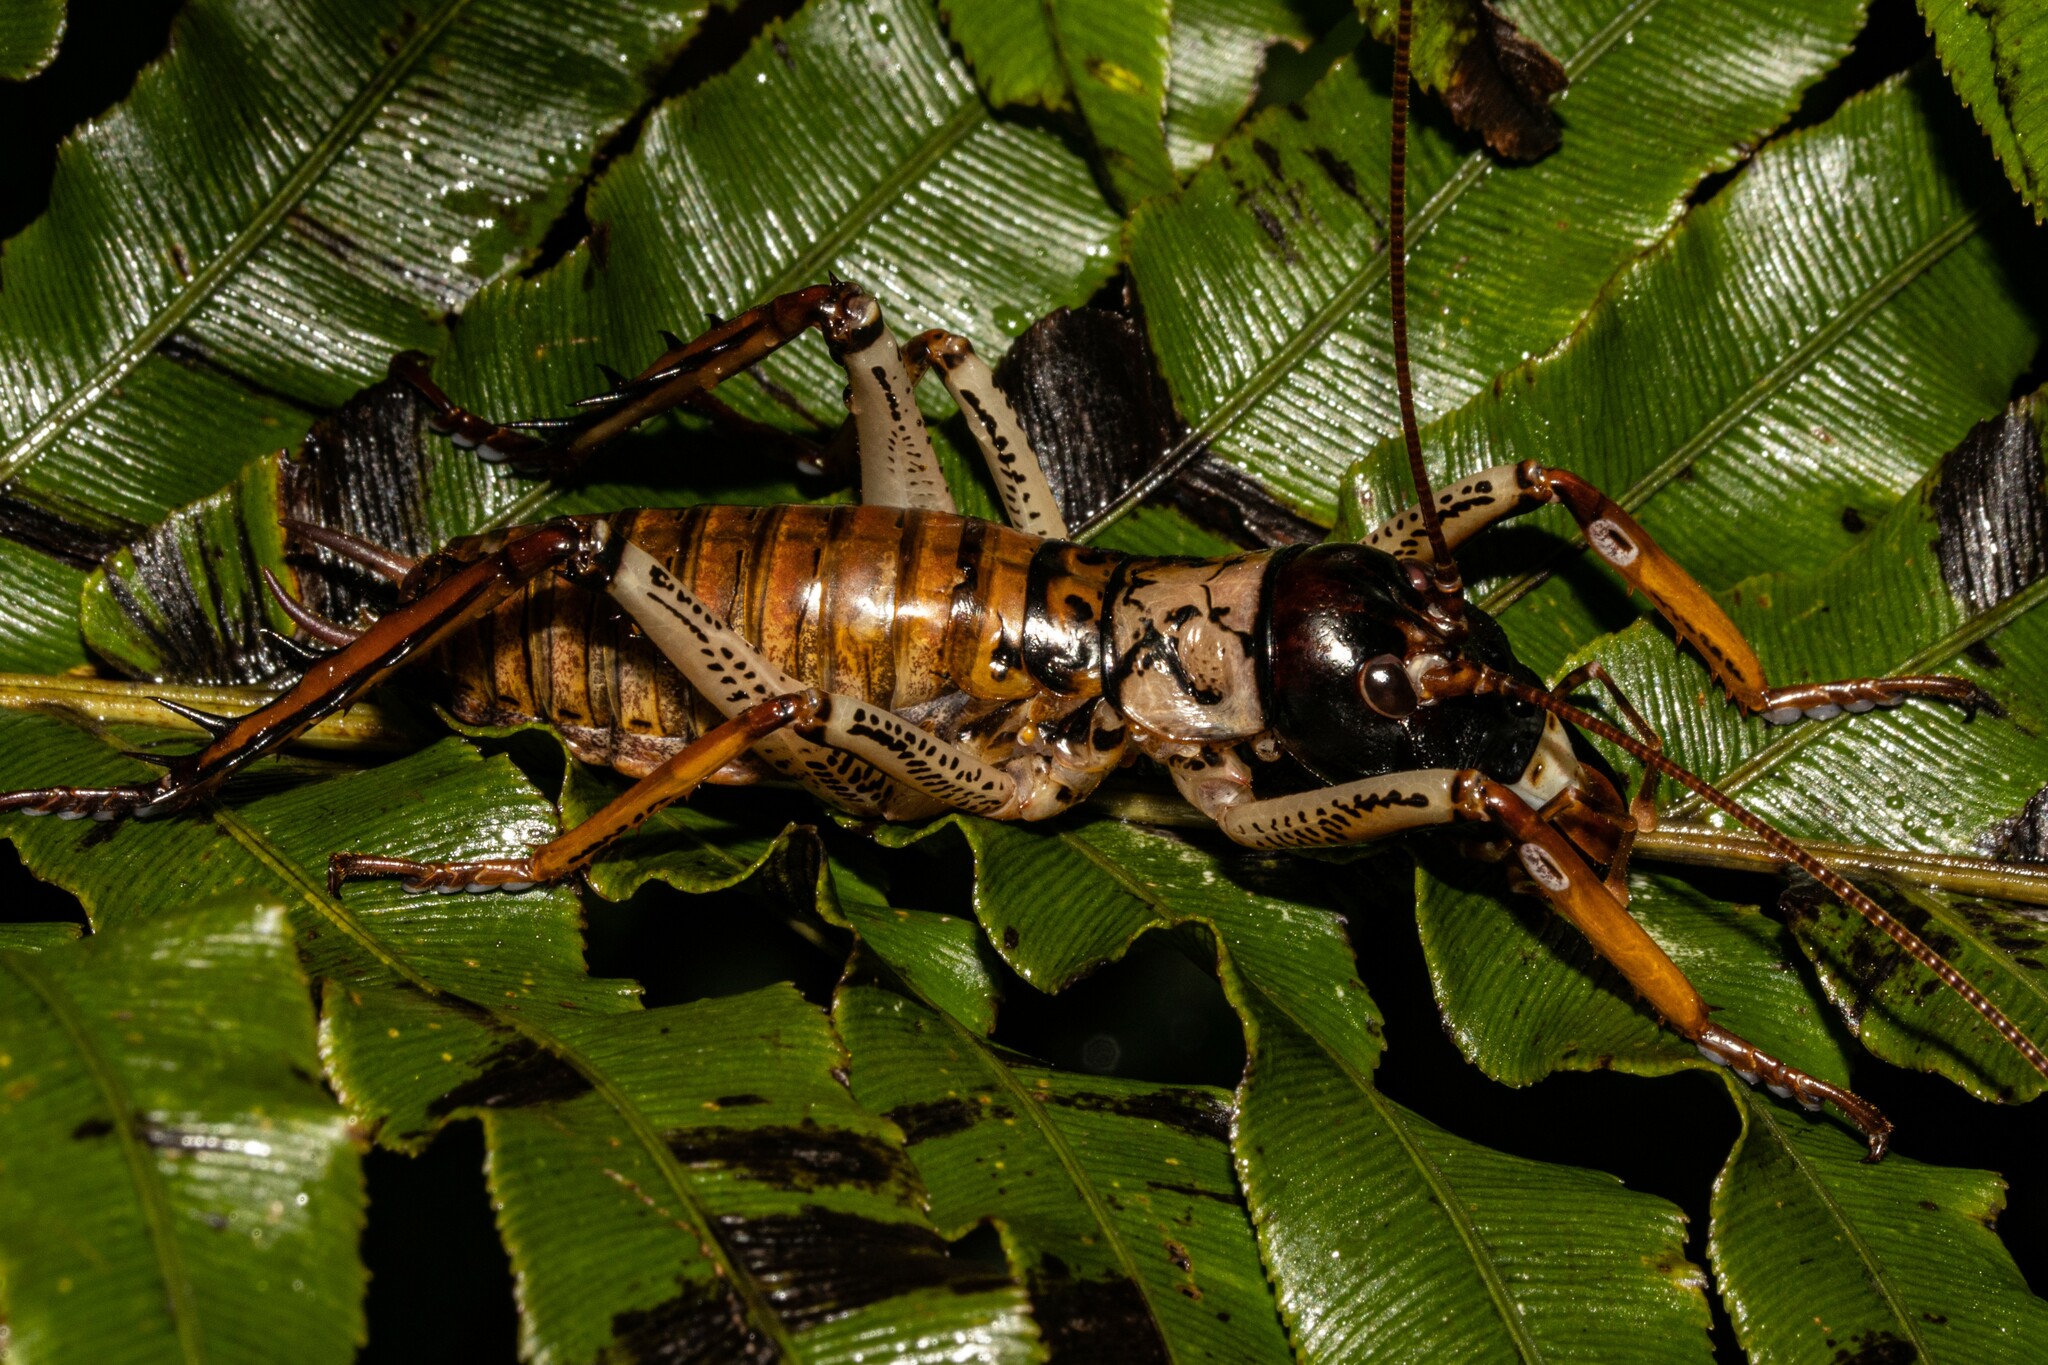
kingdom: Animalia
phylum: Arthropoda
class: Insecta
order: Orthoptera
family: Anostostomatidae
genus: Hemideina
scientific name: Hemideina thoracica
